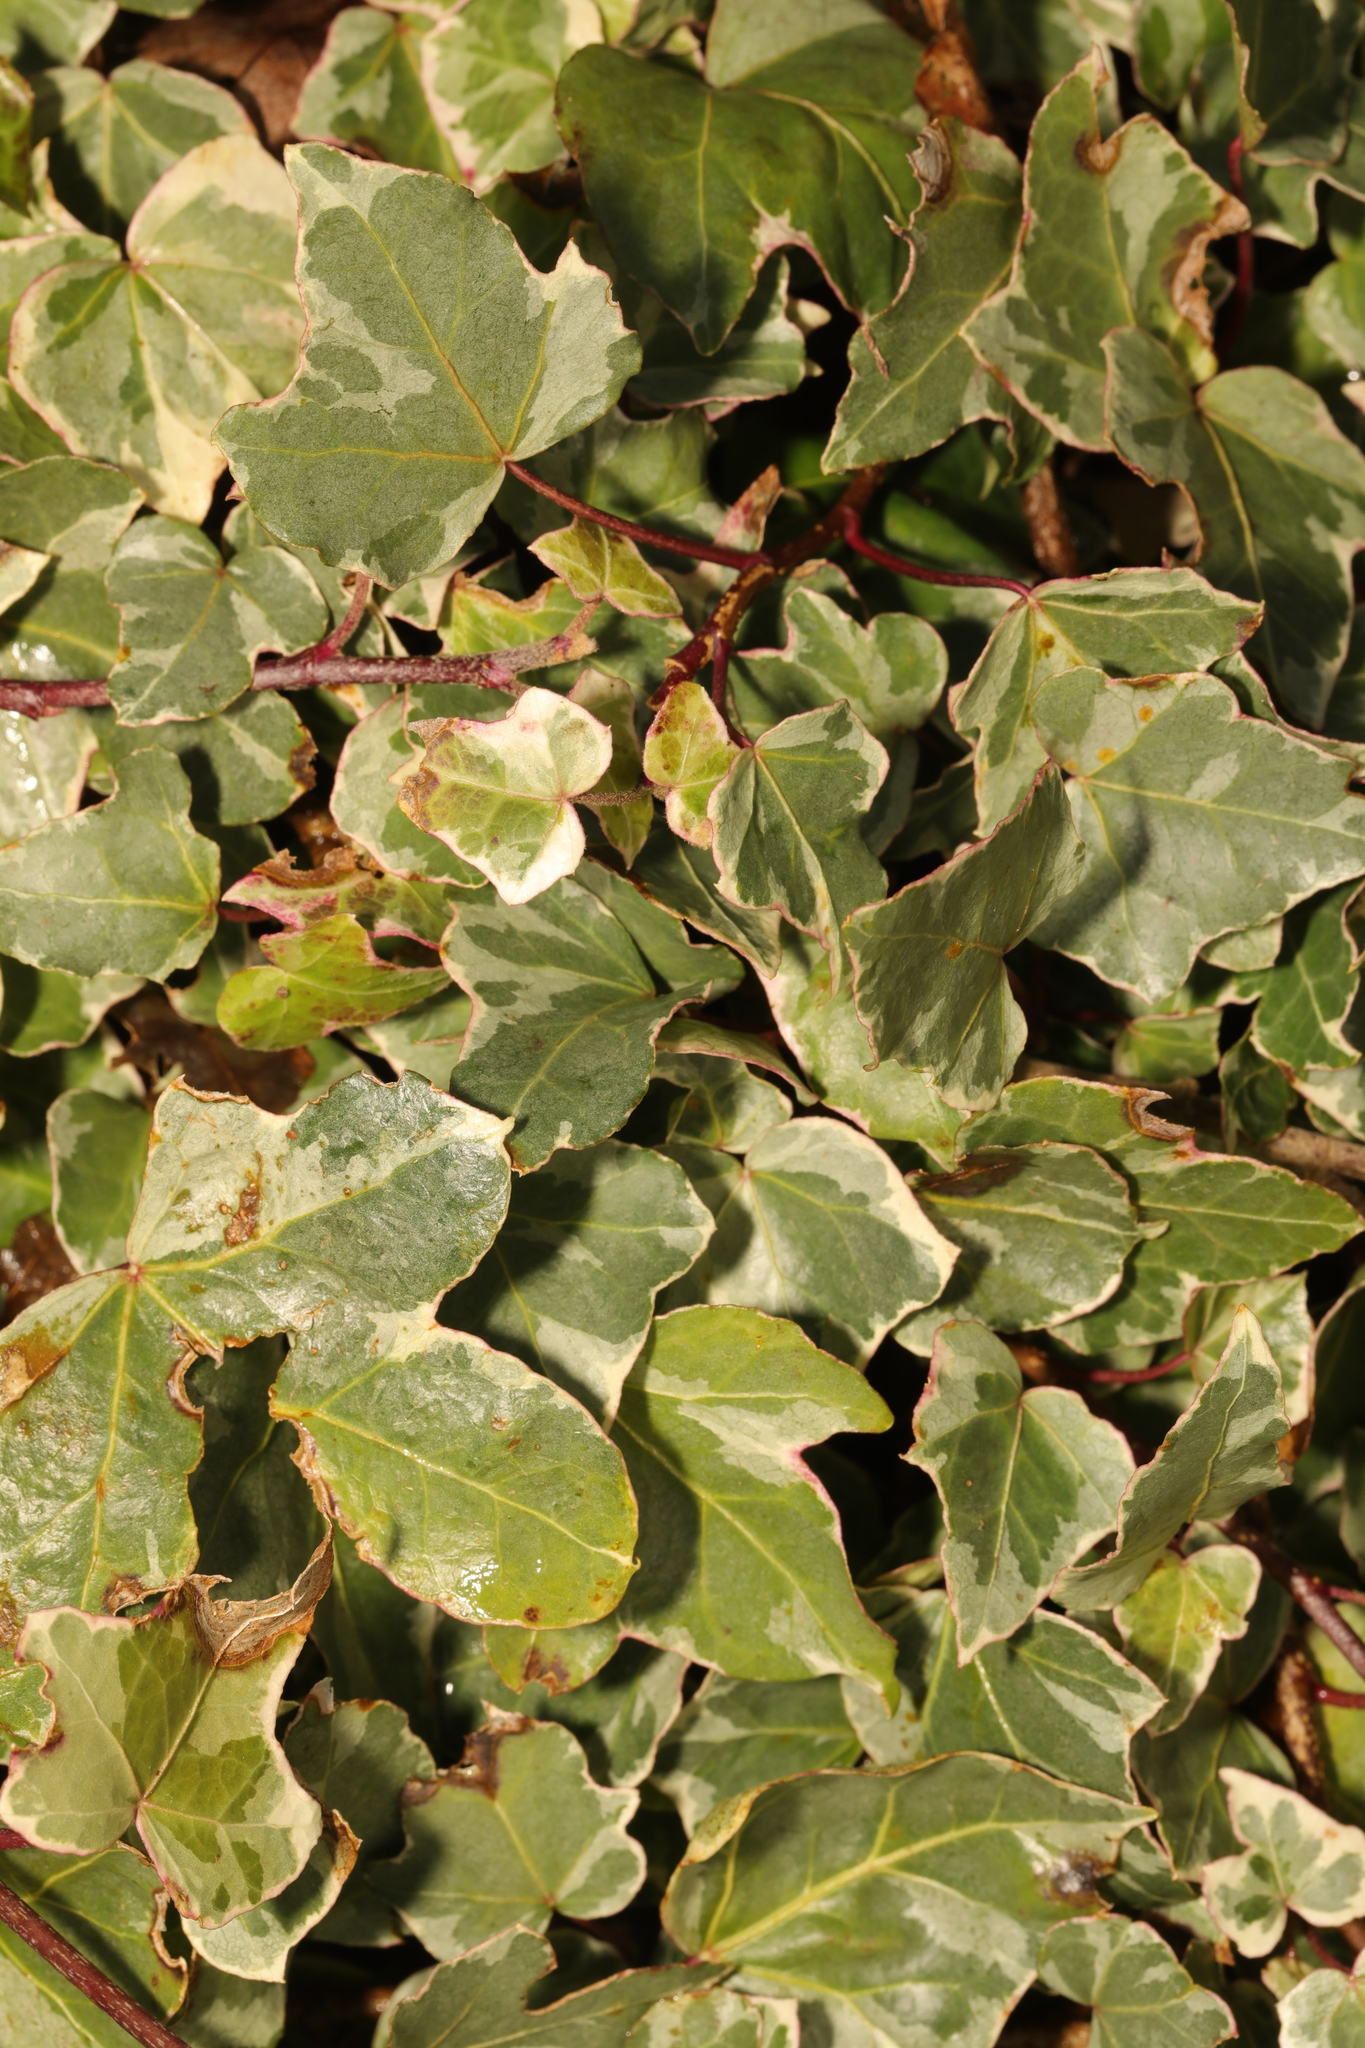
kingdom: Plantae
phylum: Tracheophyta
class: Magnoliopsida
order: Apiales
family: Araliaceae
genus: Hedera
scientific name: Hedera helix
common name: Ivy
